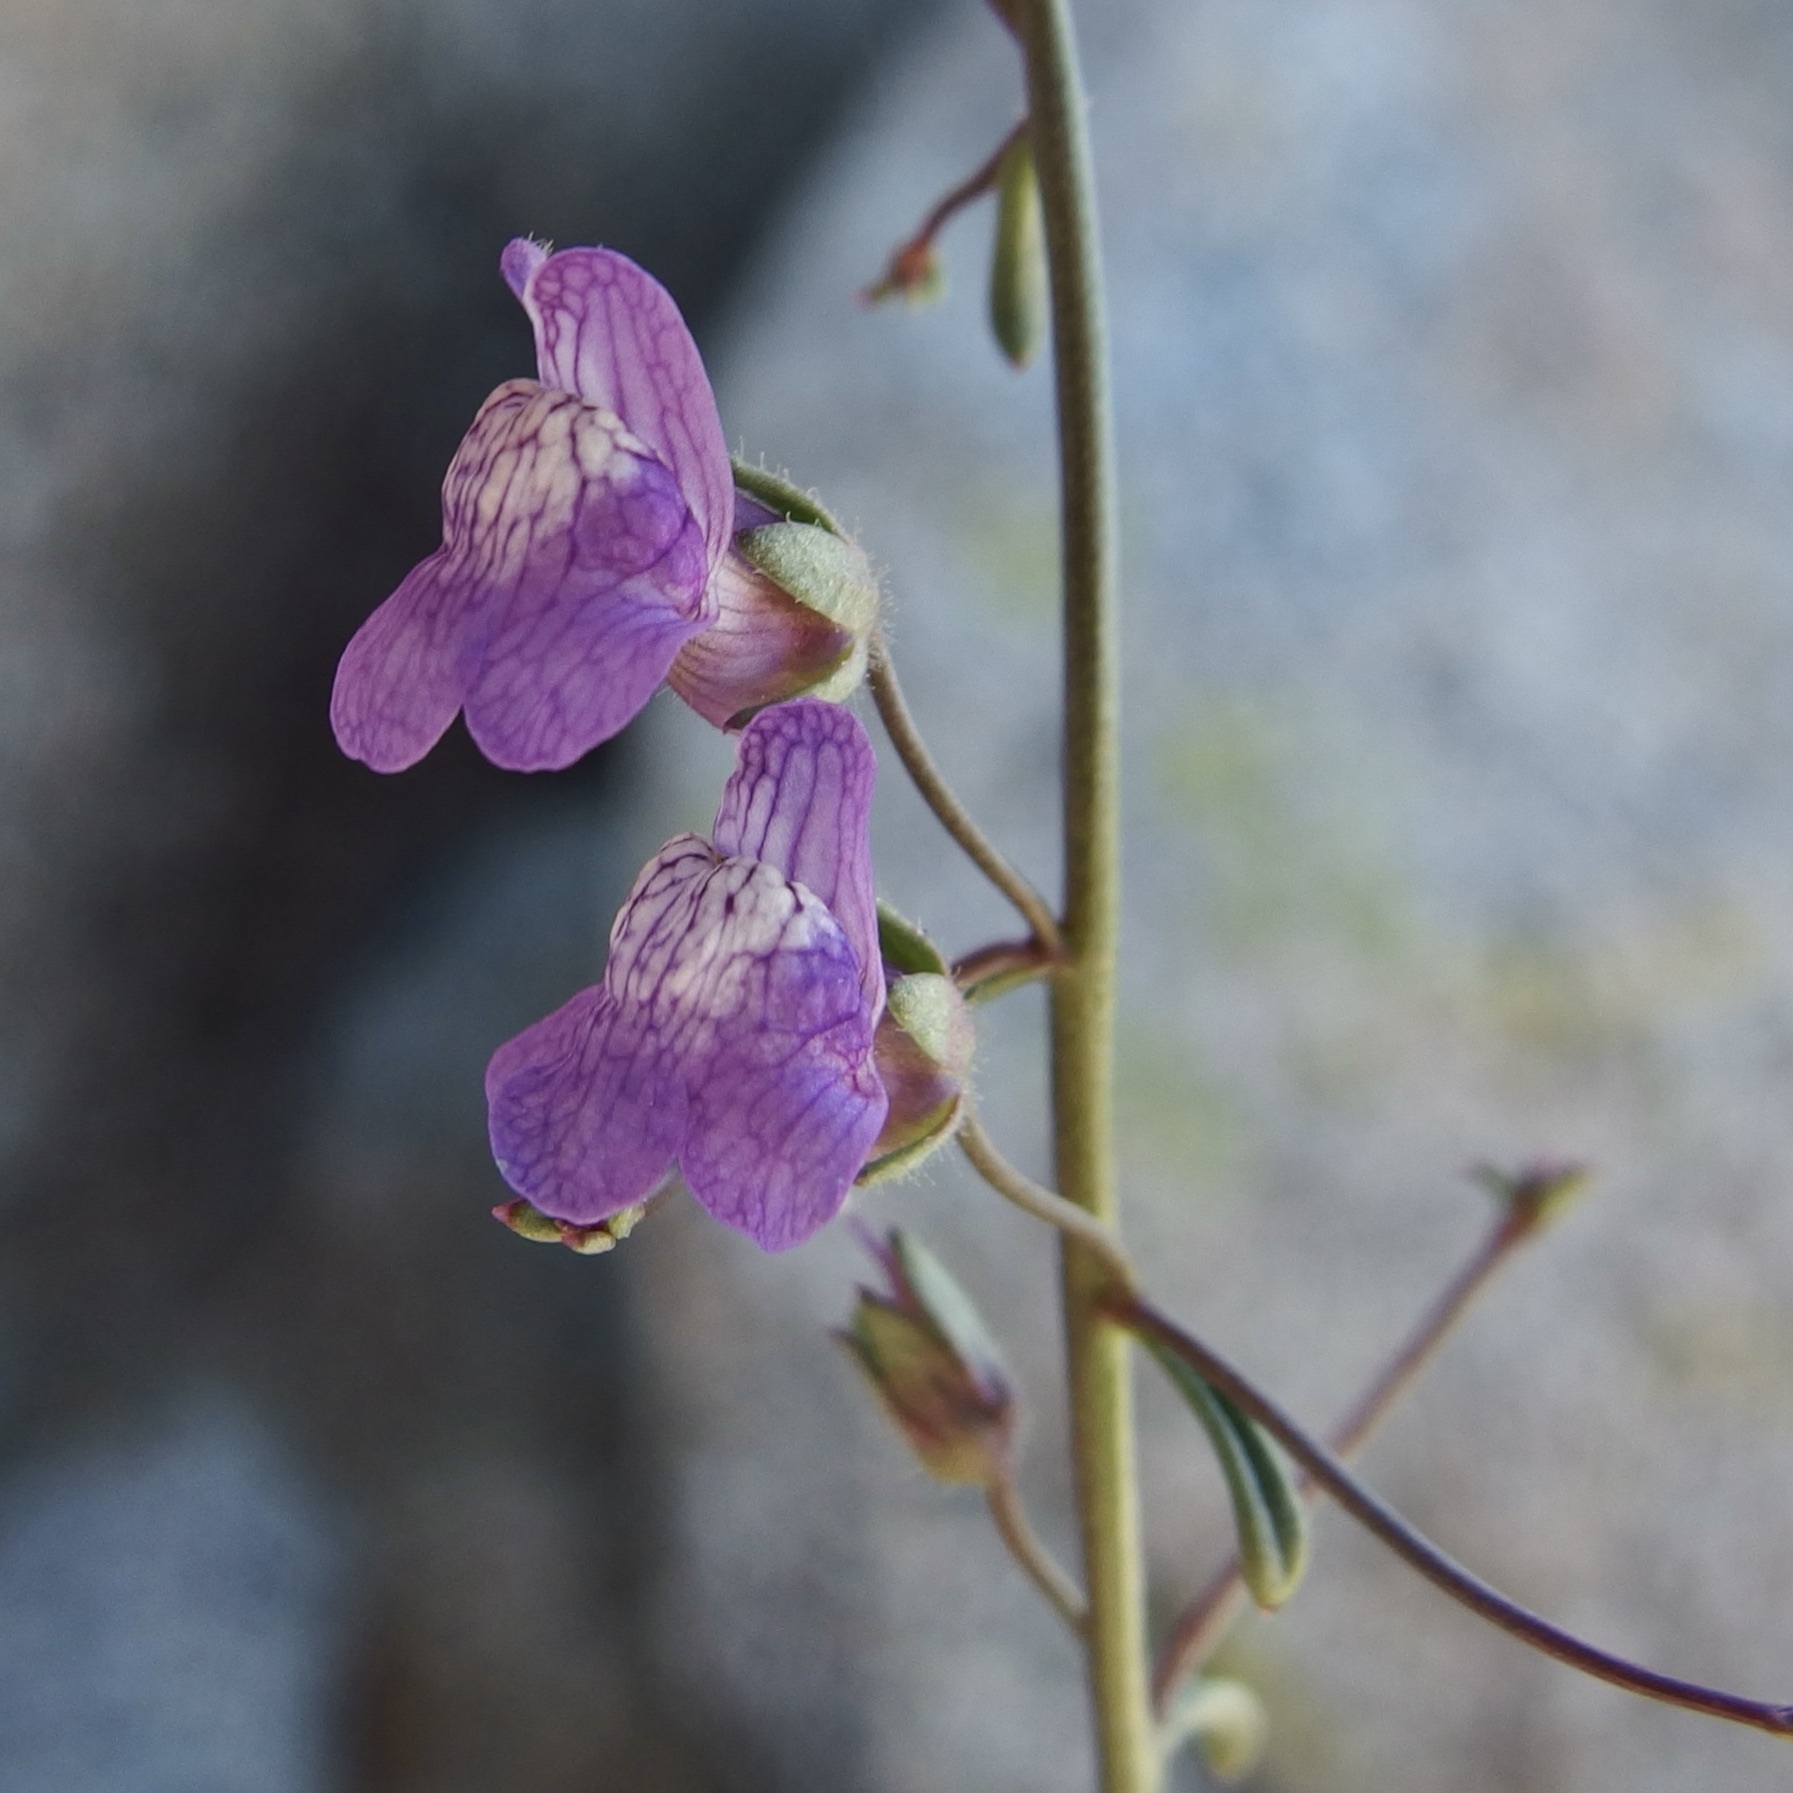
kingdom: Plantae
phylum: Tracheophyta
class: Magnoliopsida
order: Lamiales
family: Plantaginaceae
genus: Sairocarpus
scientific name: Sairocarpus watsonii
